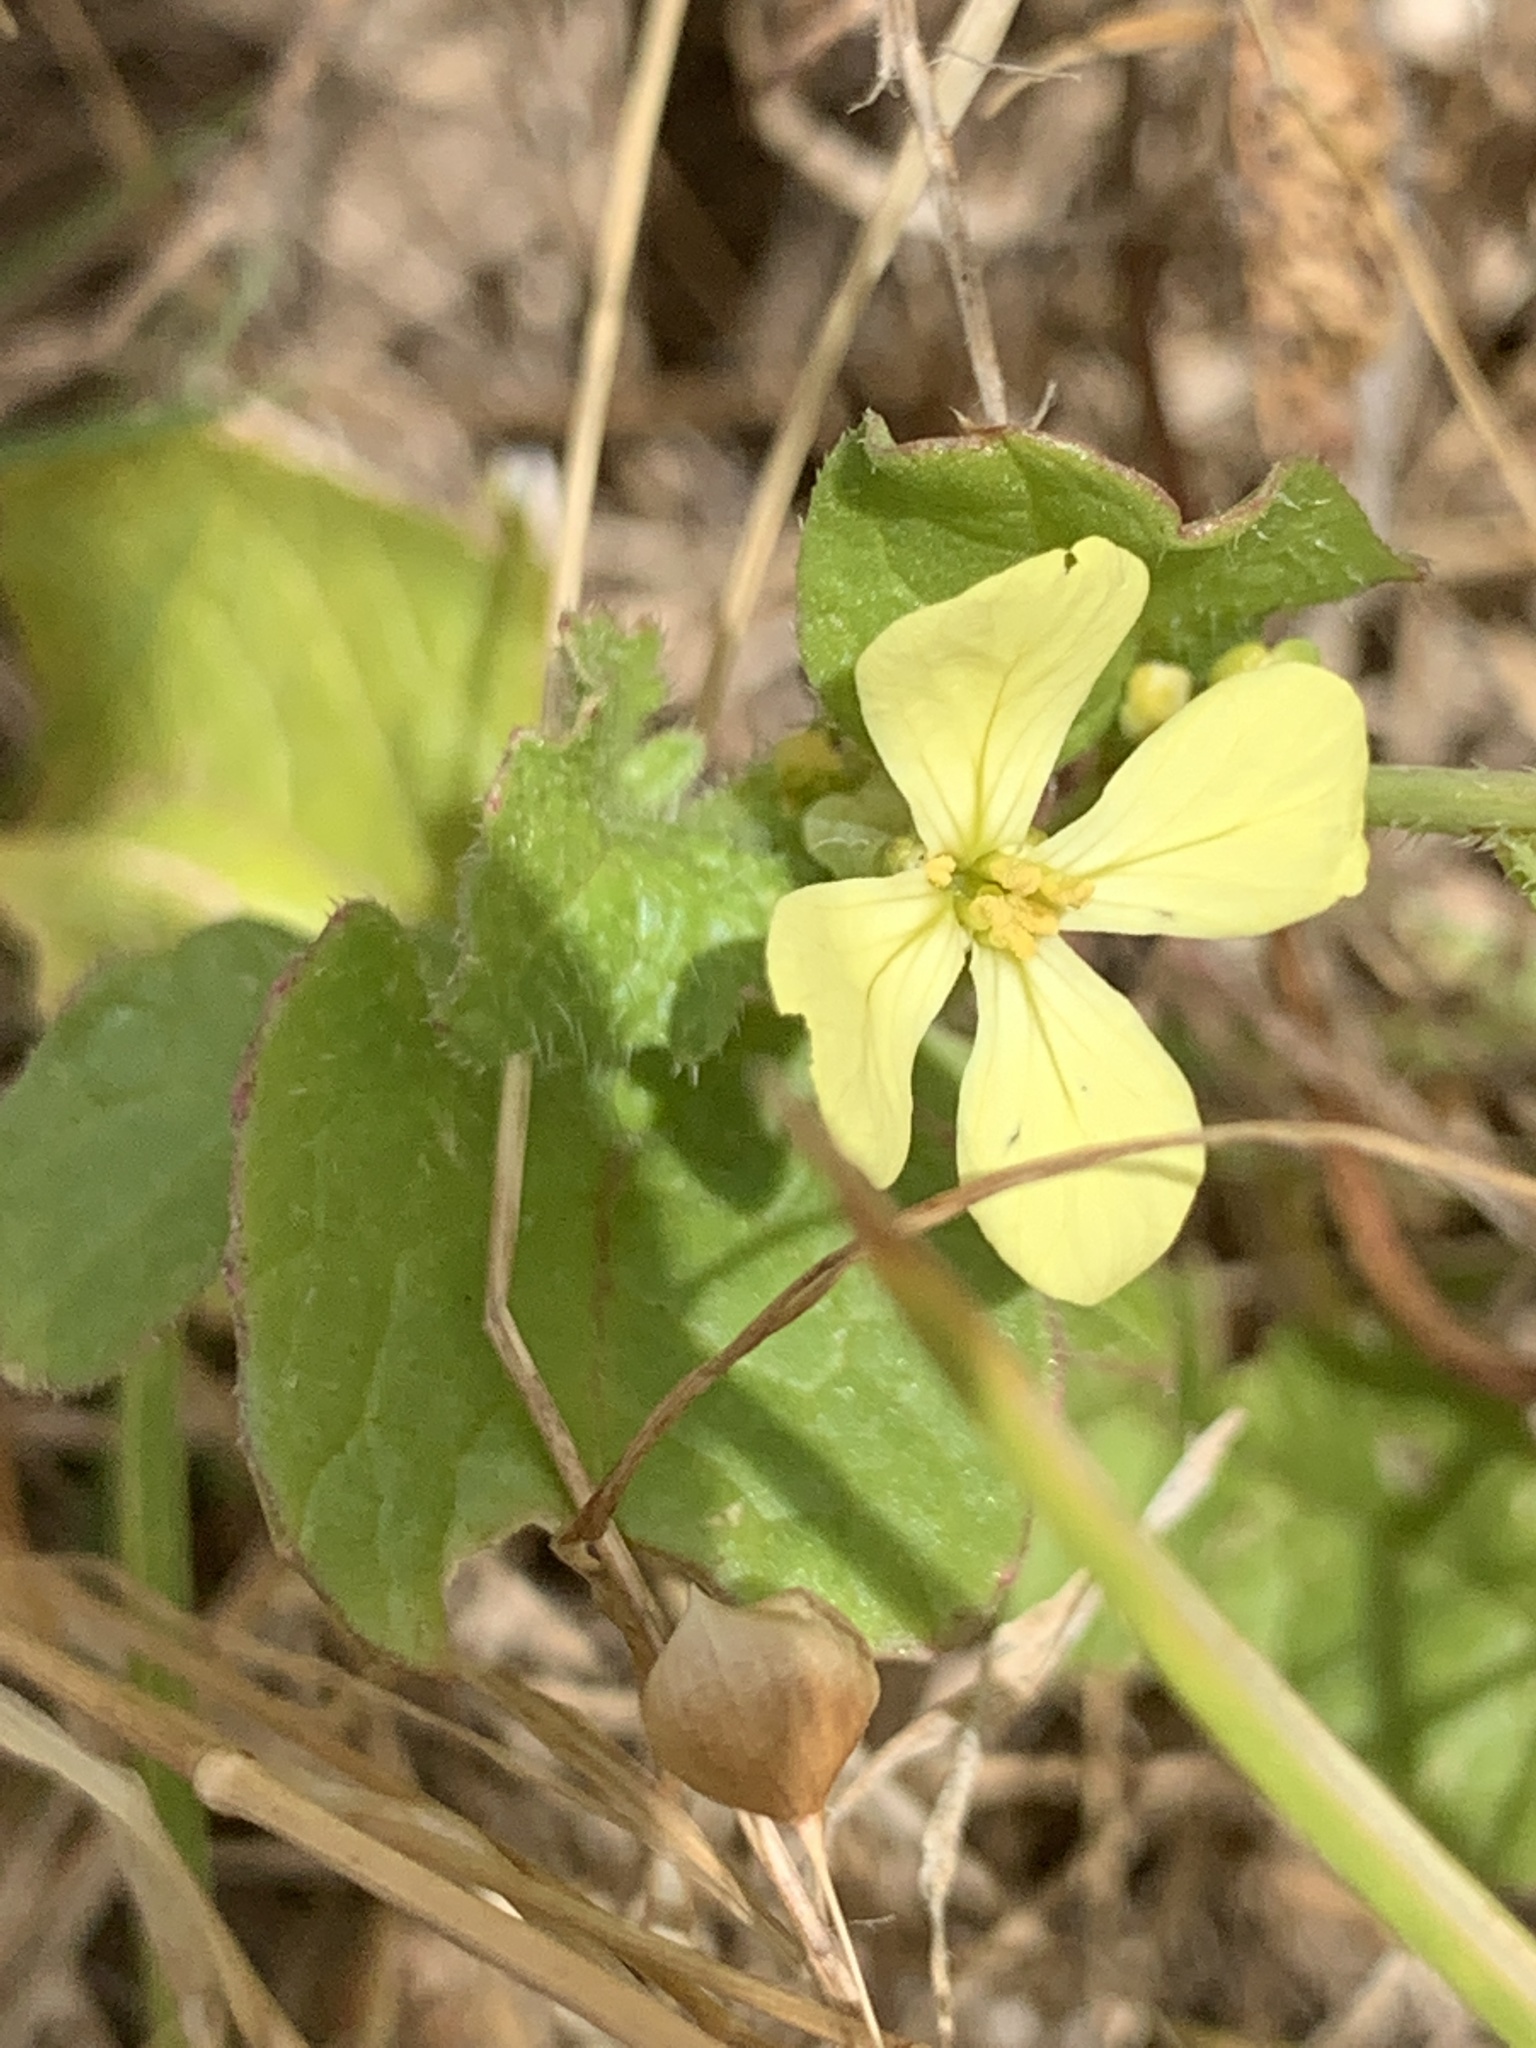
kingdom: Plantae
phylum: Tracheophyta
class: Magnoliopsida
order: Brassicales
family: Brassicaceae
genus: Raphanus
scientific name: Raphanus raphanistrum
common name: Wild radish
